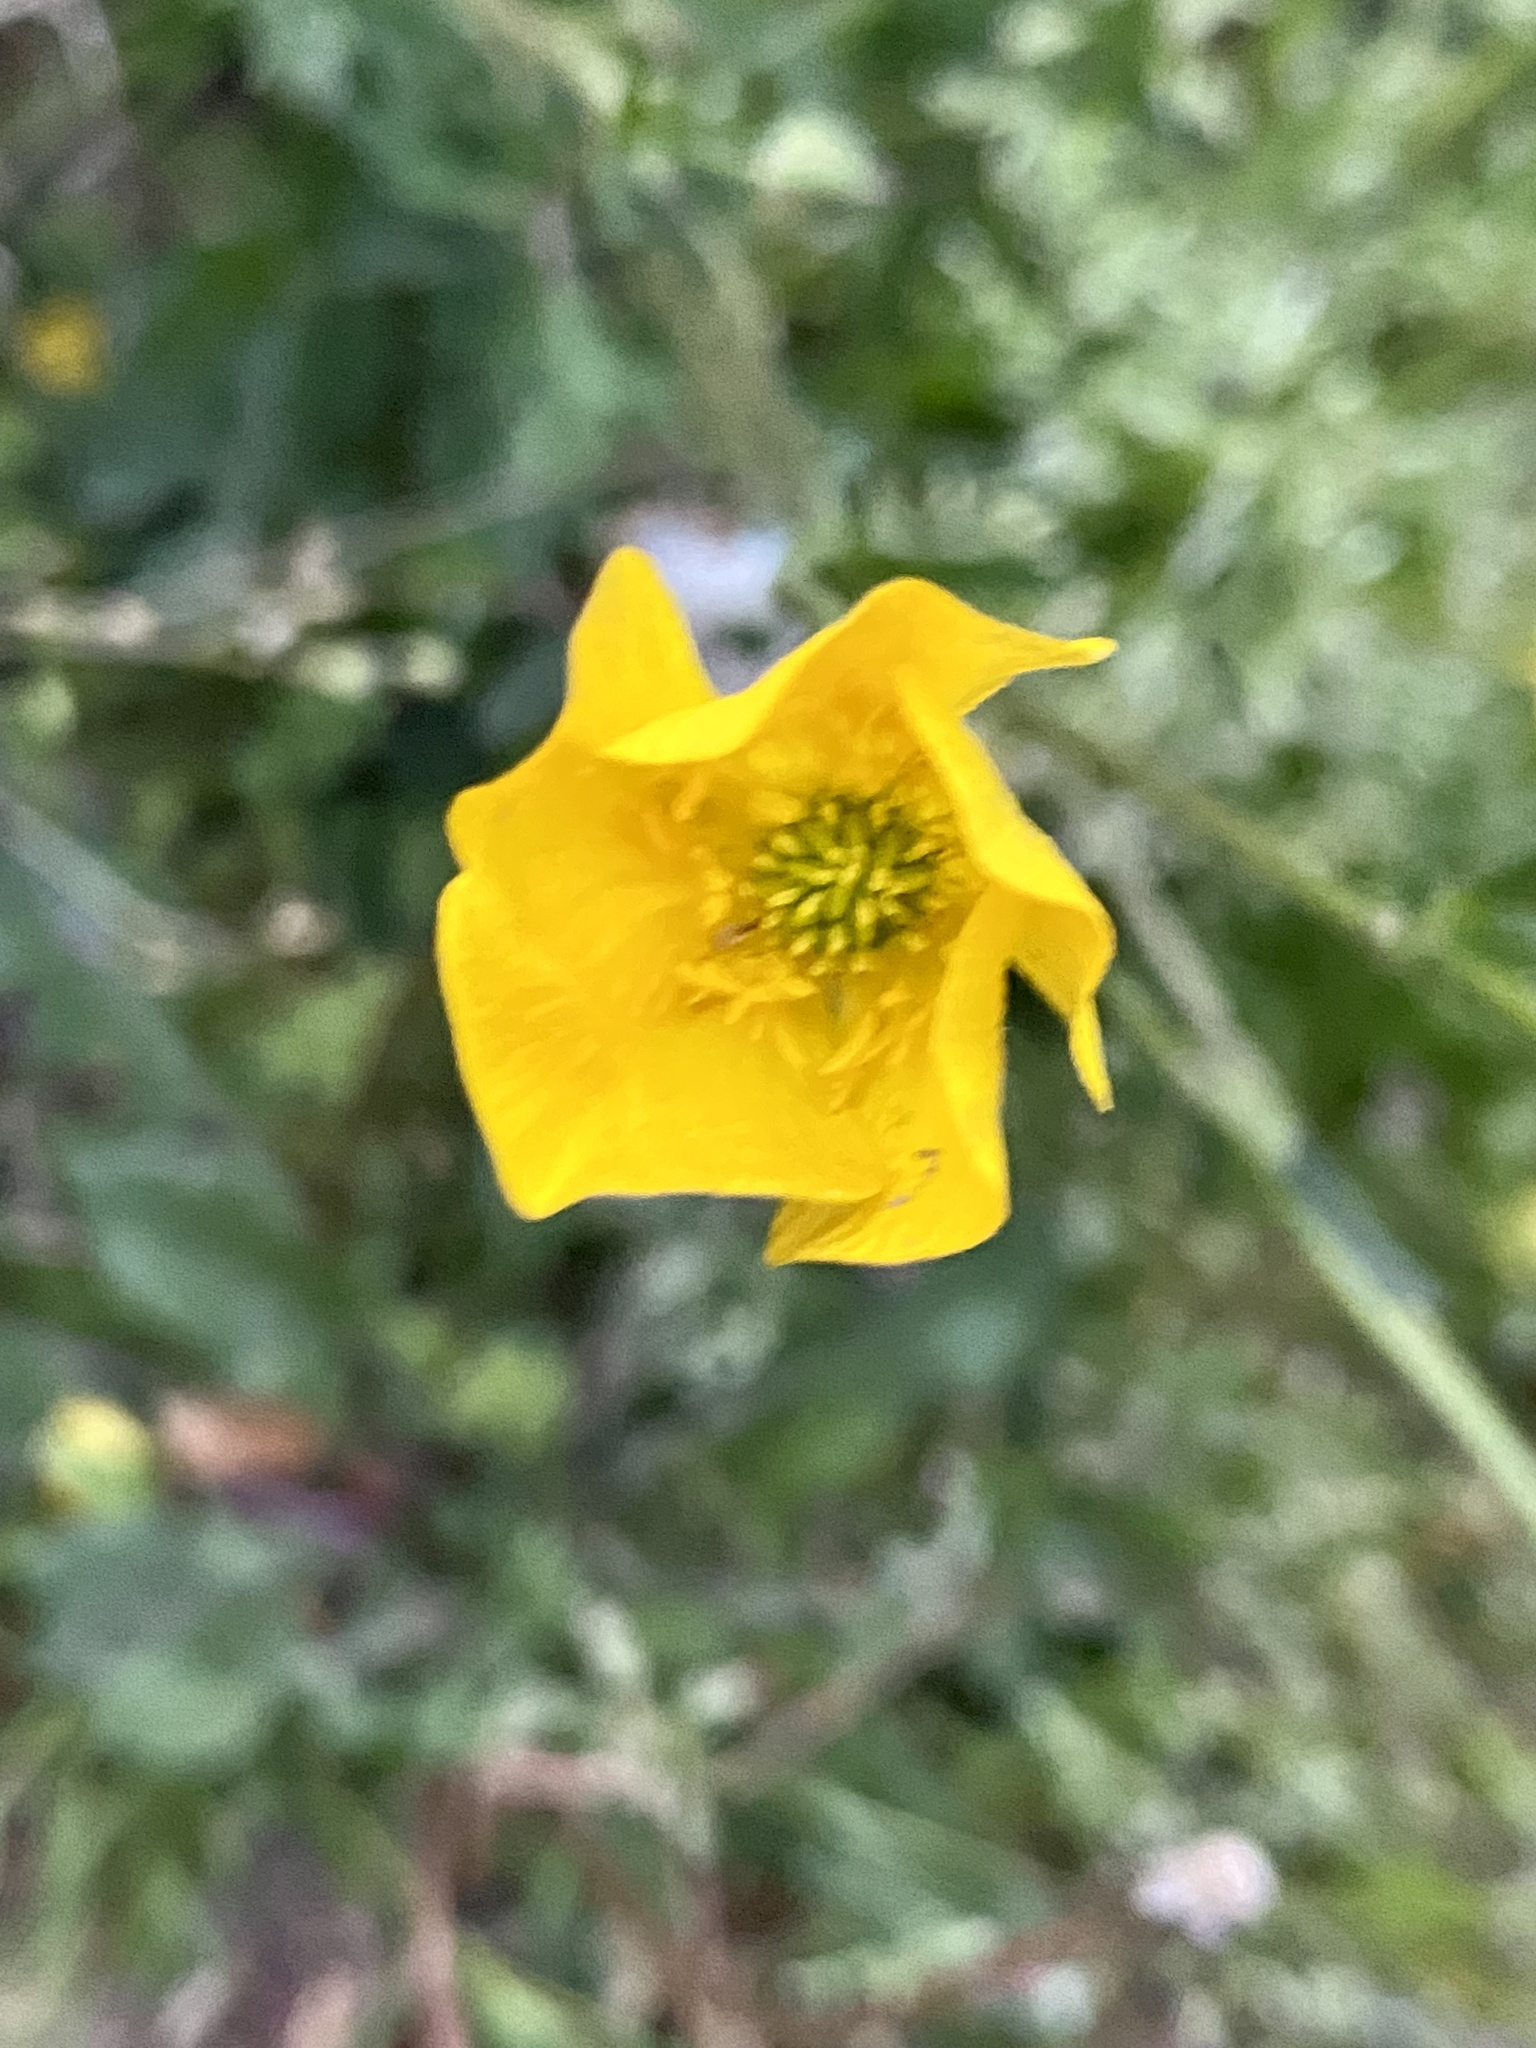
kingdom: Plantae
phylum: Tracheophyta
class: Magnoliopsida
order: Ranunculales
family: Ranunculaceae
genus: Ranunculus
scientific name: Ranunculus bulbosus
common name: Bulbous buttercup
